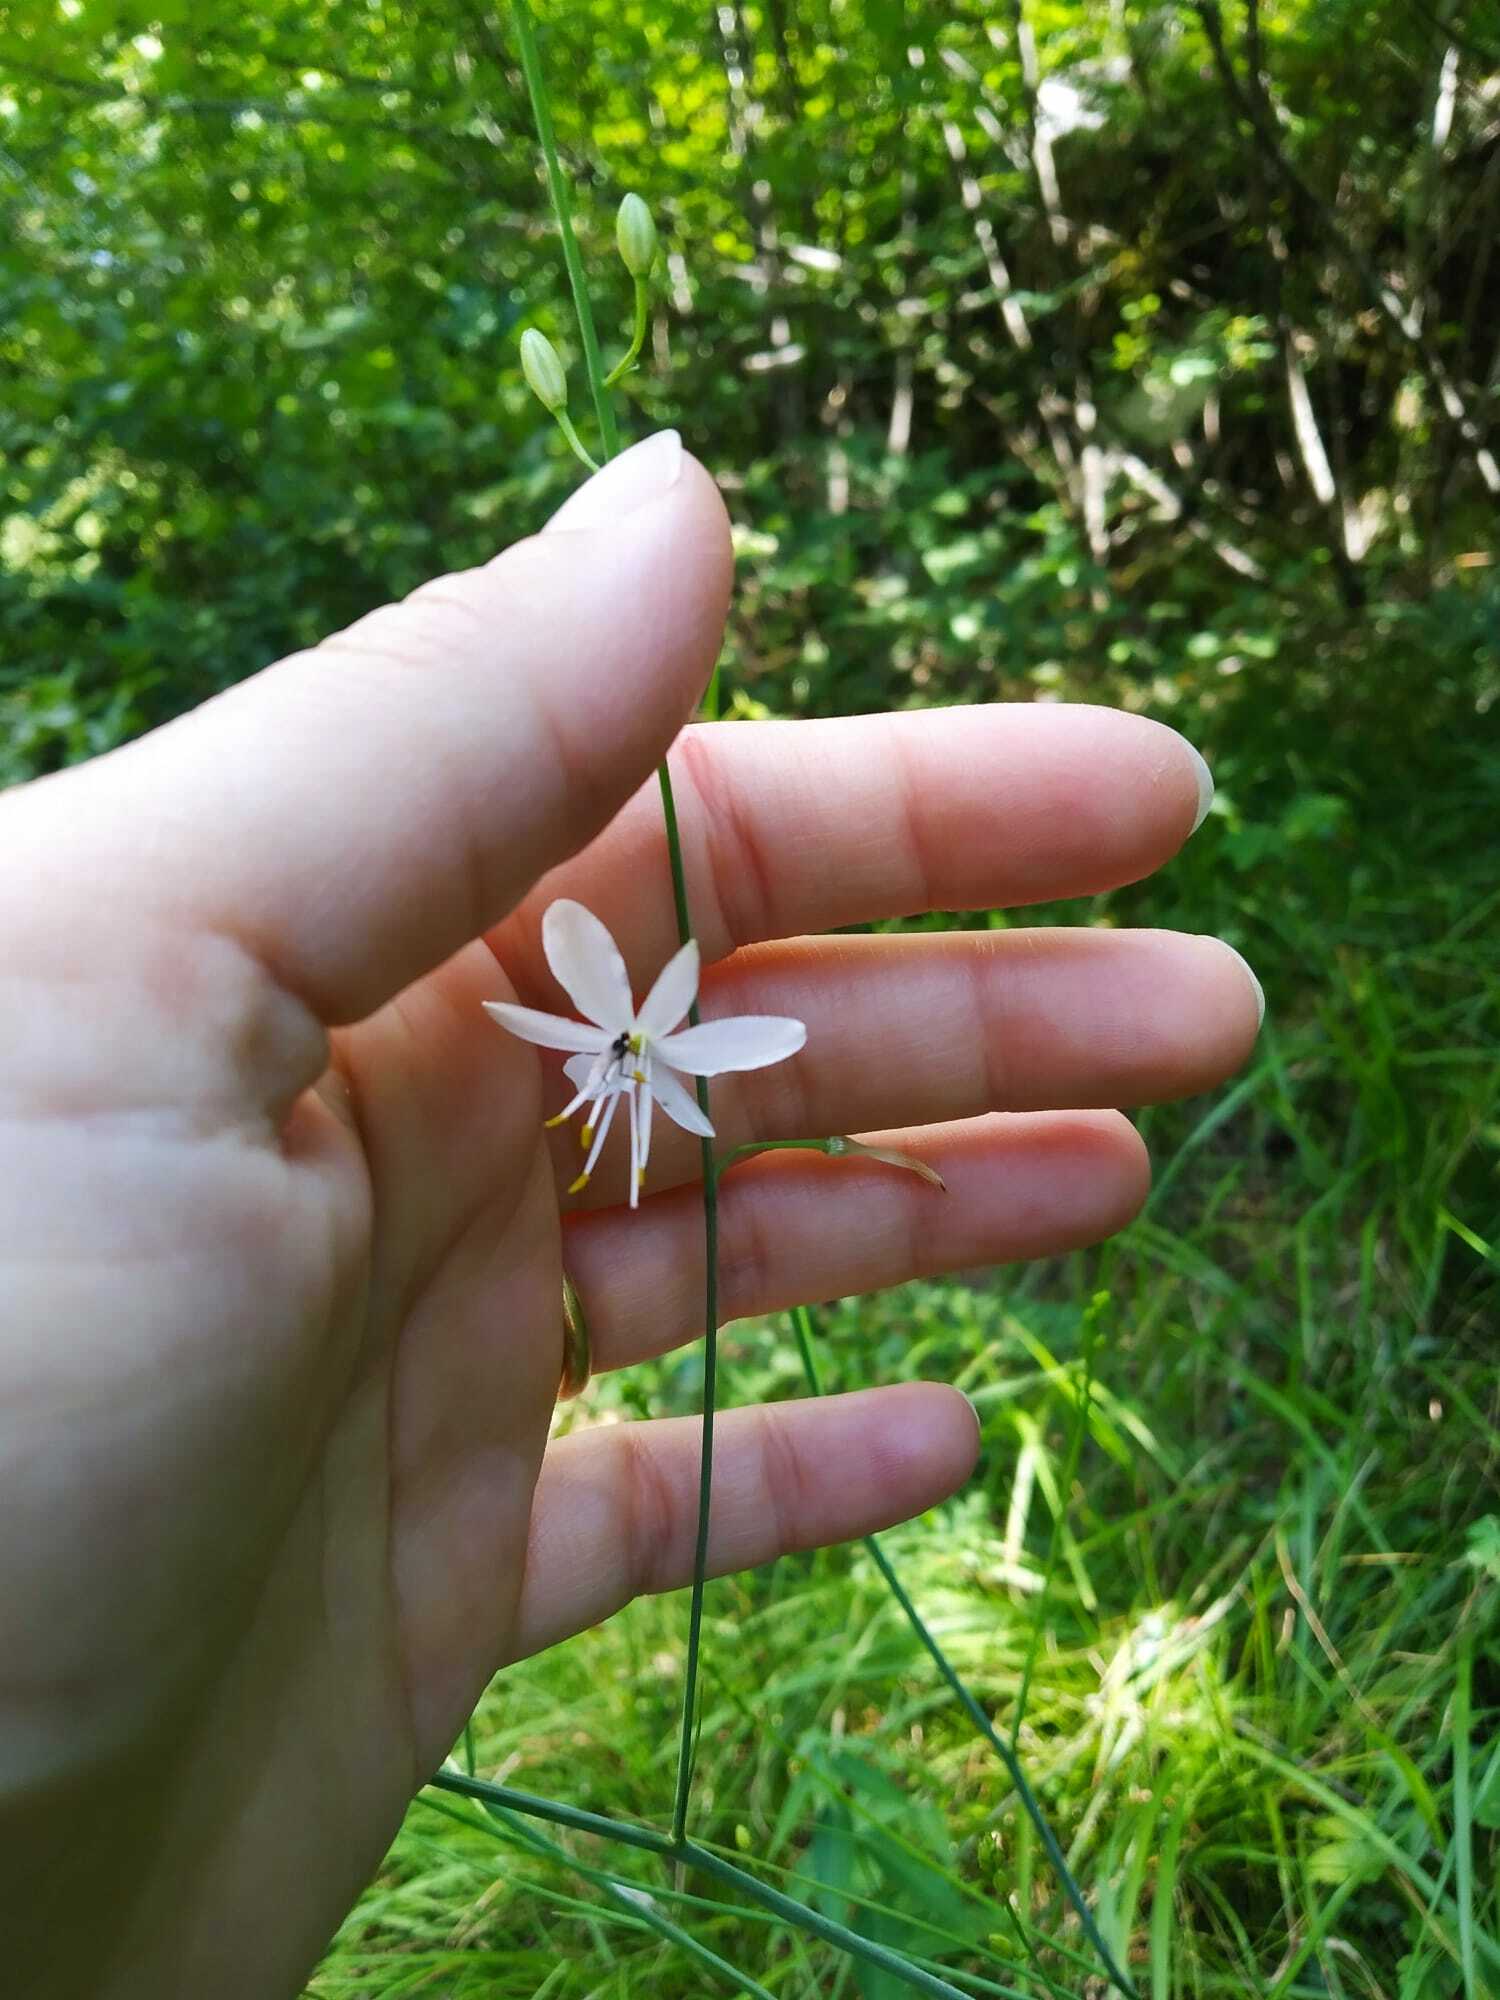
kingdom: Plantae
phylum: Tracheophyta
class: Liliopsida
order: Asparagales
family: Asparagaceae
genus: Anthericum
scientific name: Anthericum ramosum
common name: Branched st. bernard's-lily
